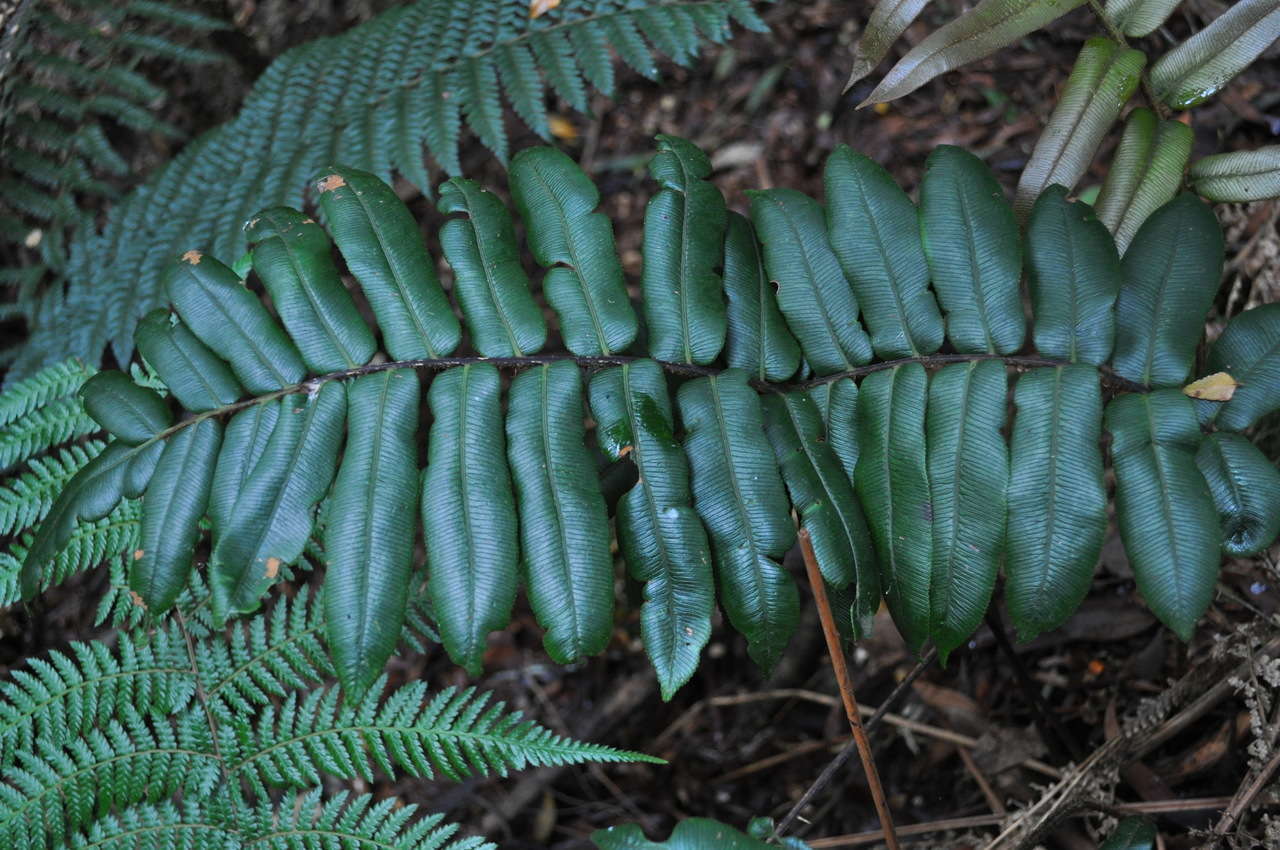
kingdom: Plantae
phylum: Tracheophyta
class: Polypodiopsida
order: Polypodiales
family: Blechnaceae
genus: Parablechnum
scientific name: Parablechnum wattsii
